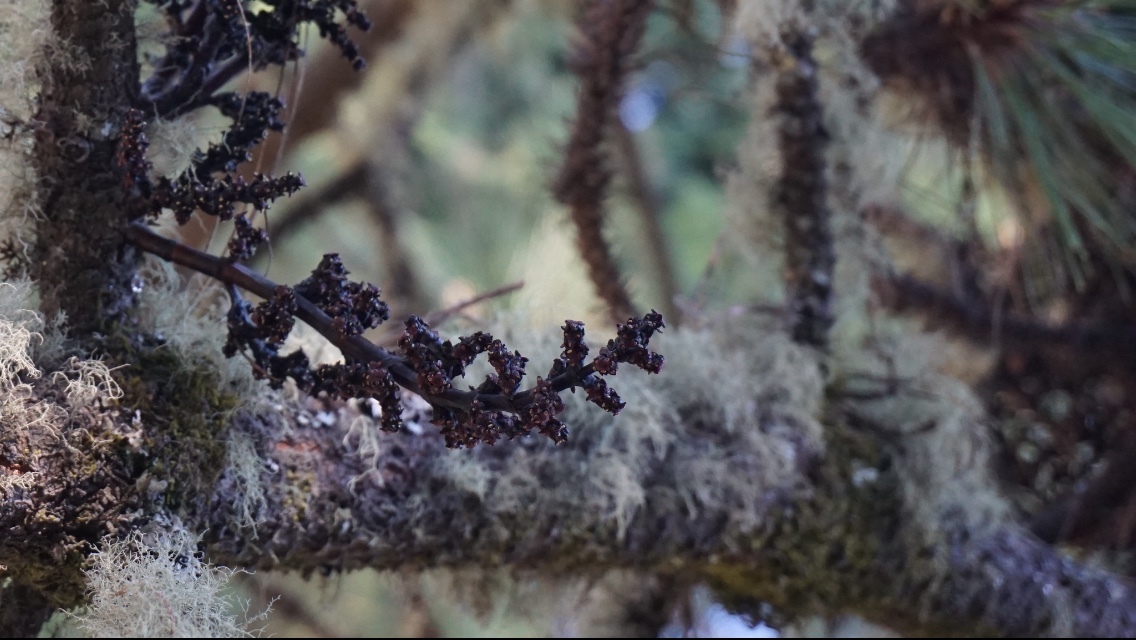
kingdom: Plantae
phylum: Tracheophyta
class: Magnoliopsida
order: Santalales
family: Viscaceae
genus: Arceuthobium
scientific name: Arceuthobium vaginatum
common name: Southwestern dwarf-mistletoe
